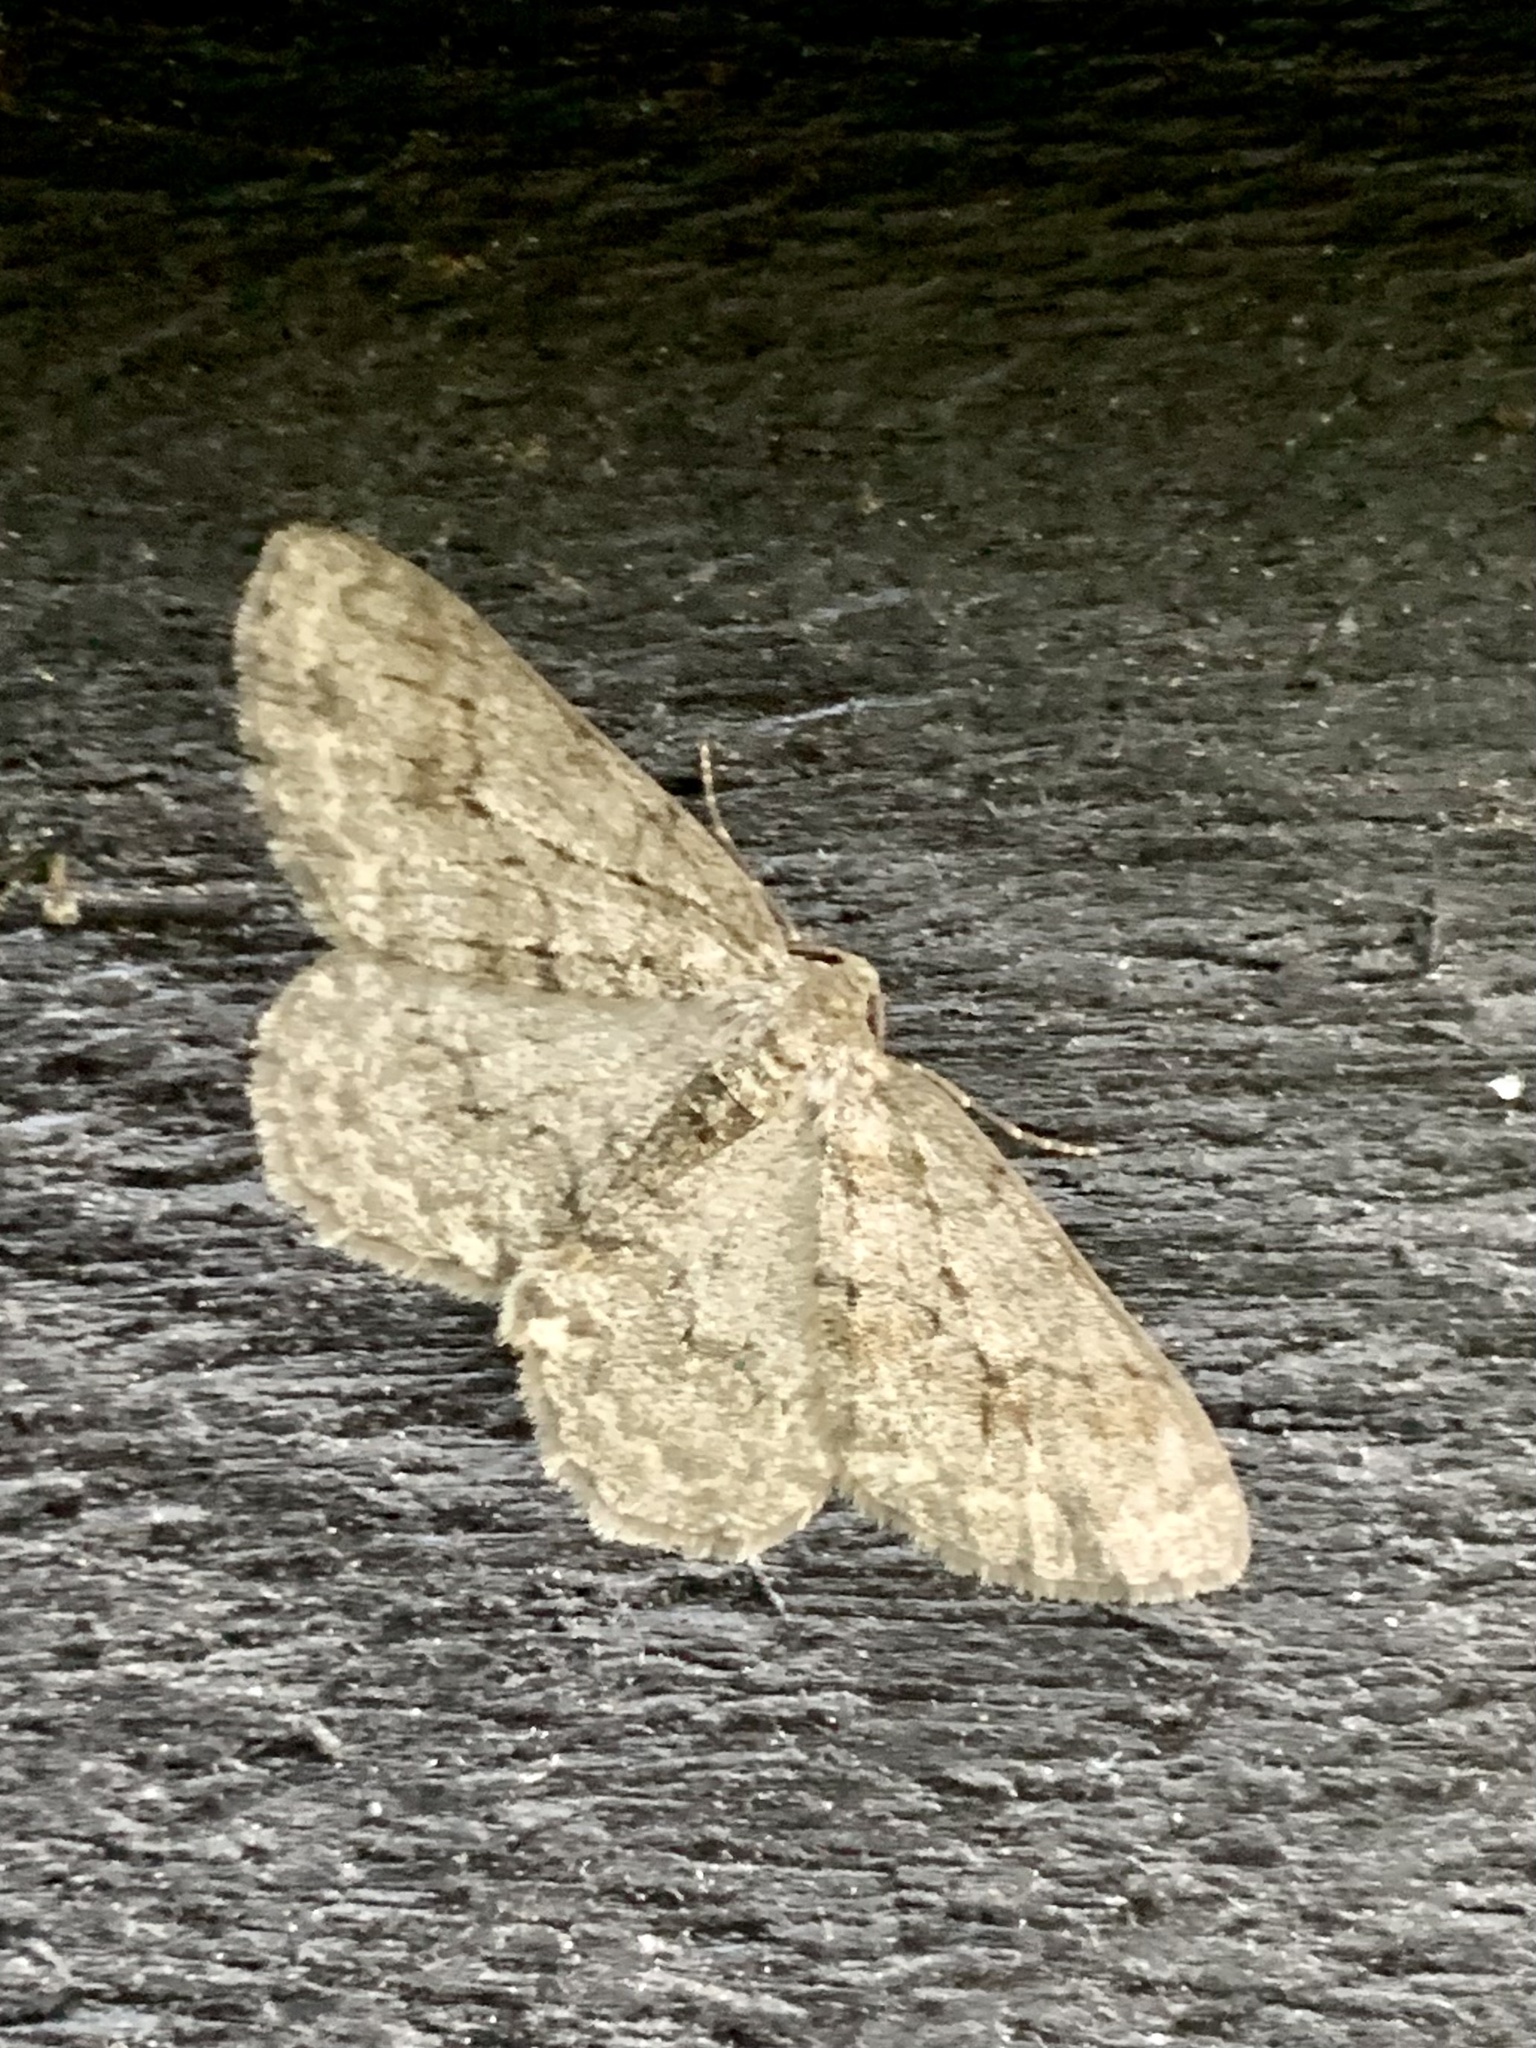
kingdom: Animalia
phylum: Arthropoda
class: Insecta
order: Lepidoptera
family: Geometridae
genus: Ectropis
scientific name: Ectropis crepuscularia
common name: Engrailed
